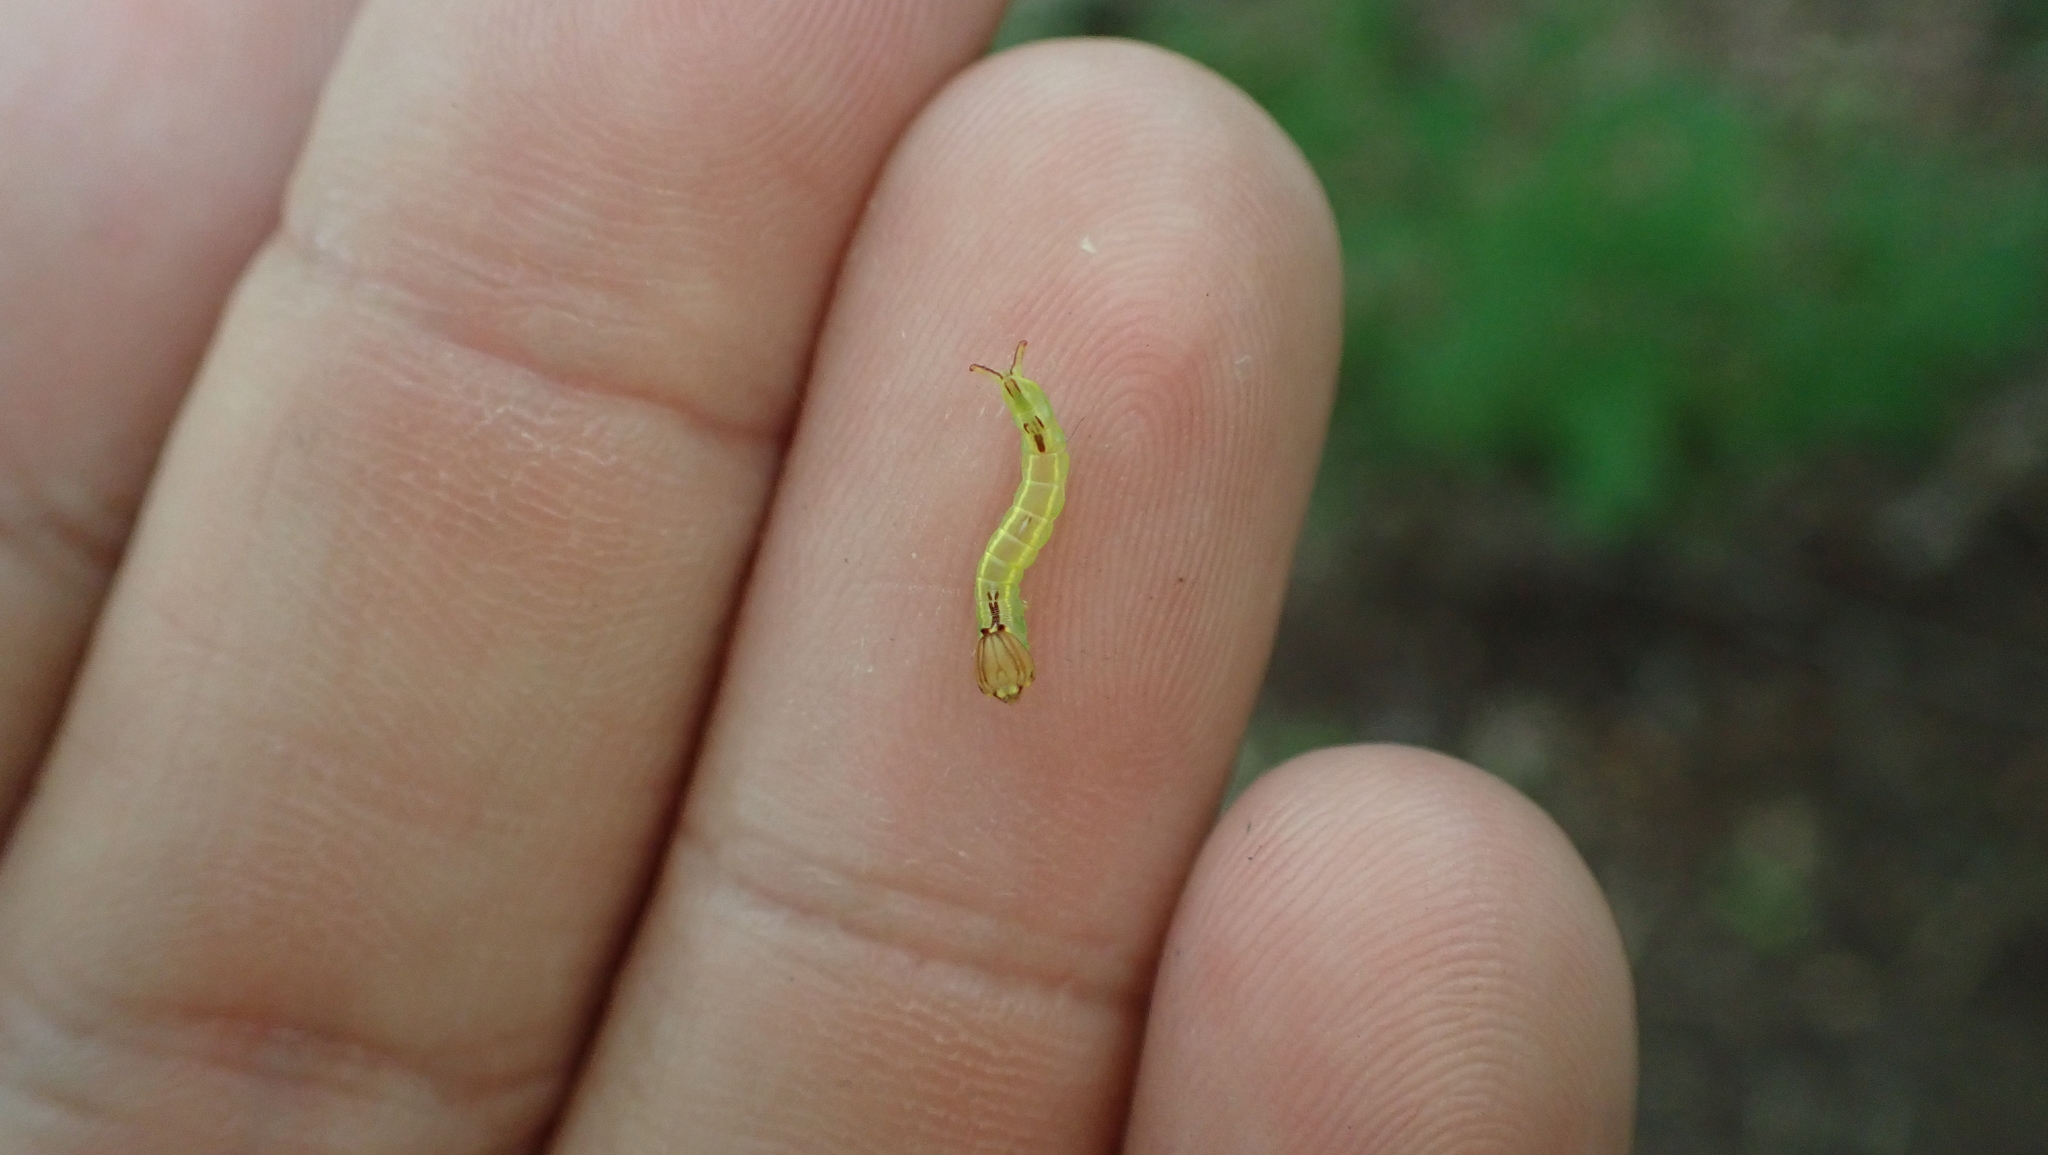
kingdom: Animalia
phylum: Arthropoda
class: Insecta
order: Lepidoptera
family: Notodontidae
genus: Disphragis
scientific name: Disphragis Cecrita guttivitta
